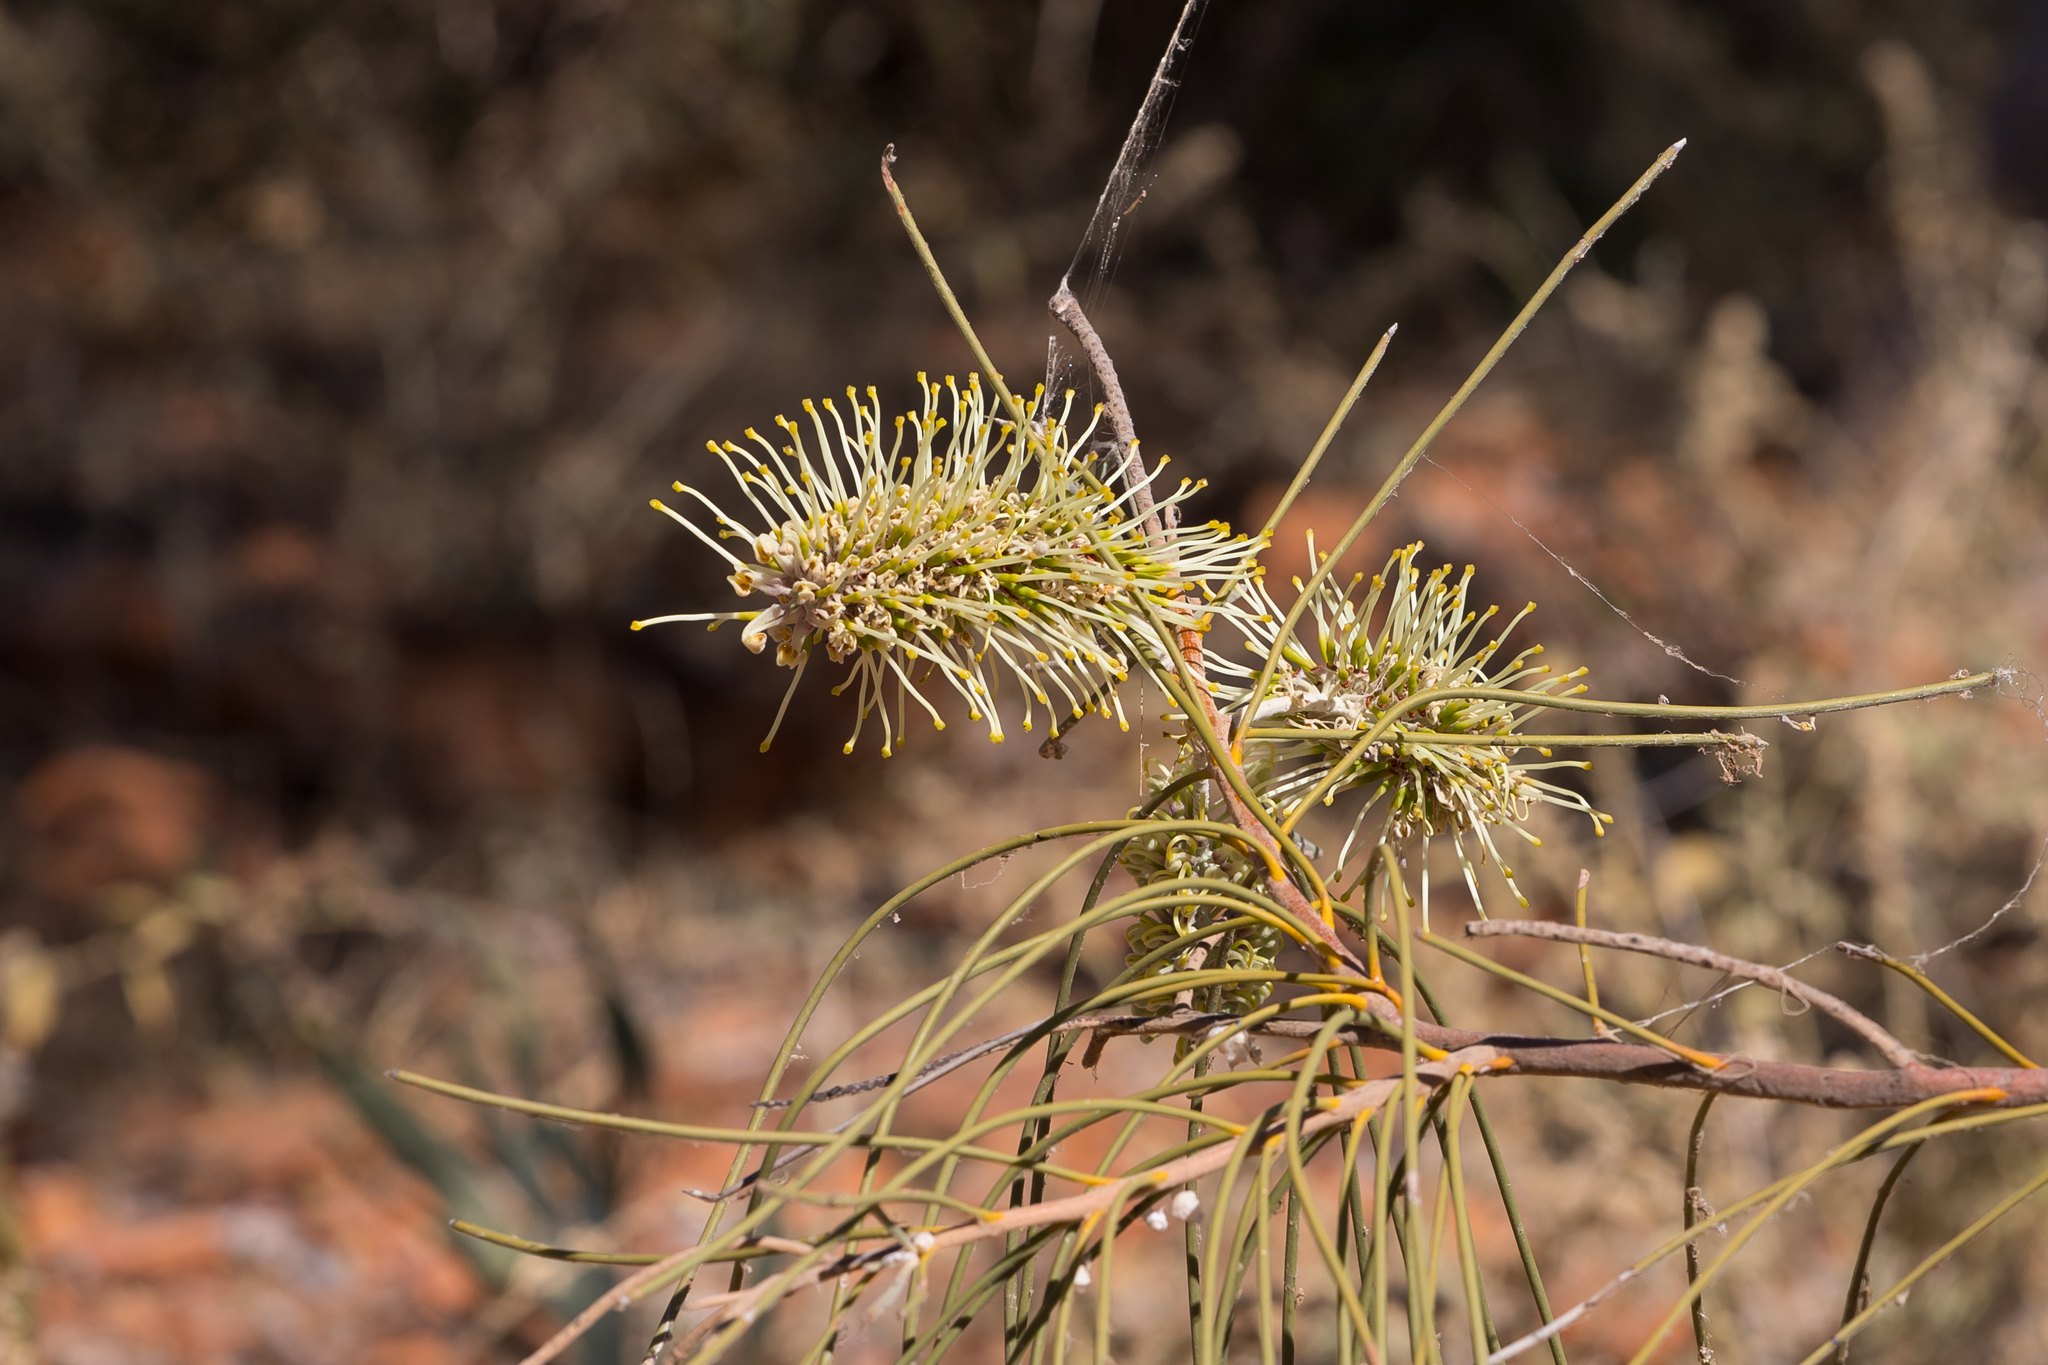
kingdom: Plantae
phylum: Tracheophyta
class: Magnoliopsida
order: Proteales
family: Proteaceae
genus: Hakea
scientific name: Hakea chordophylla
